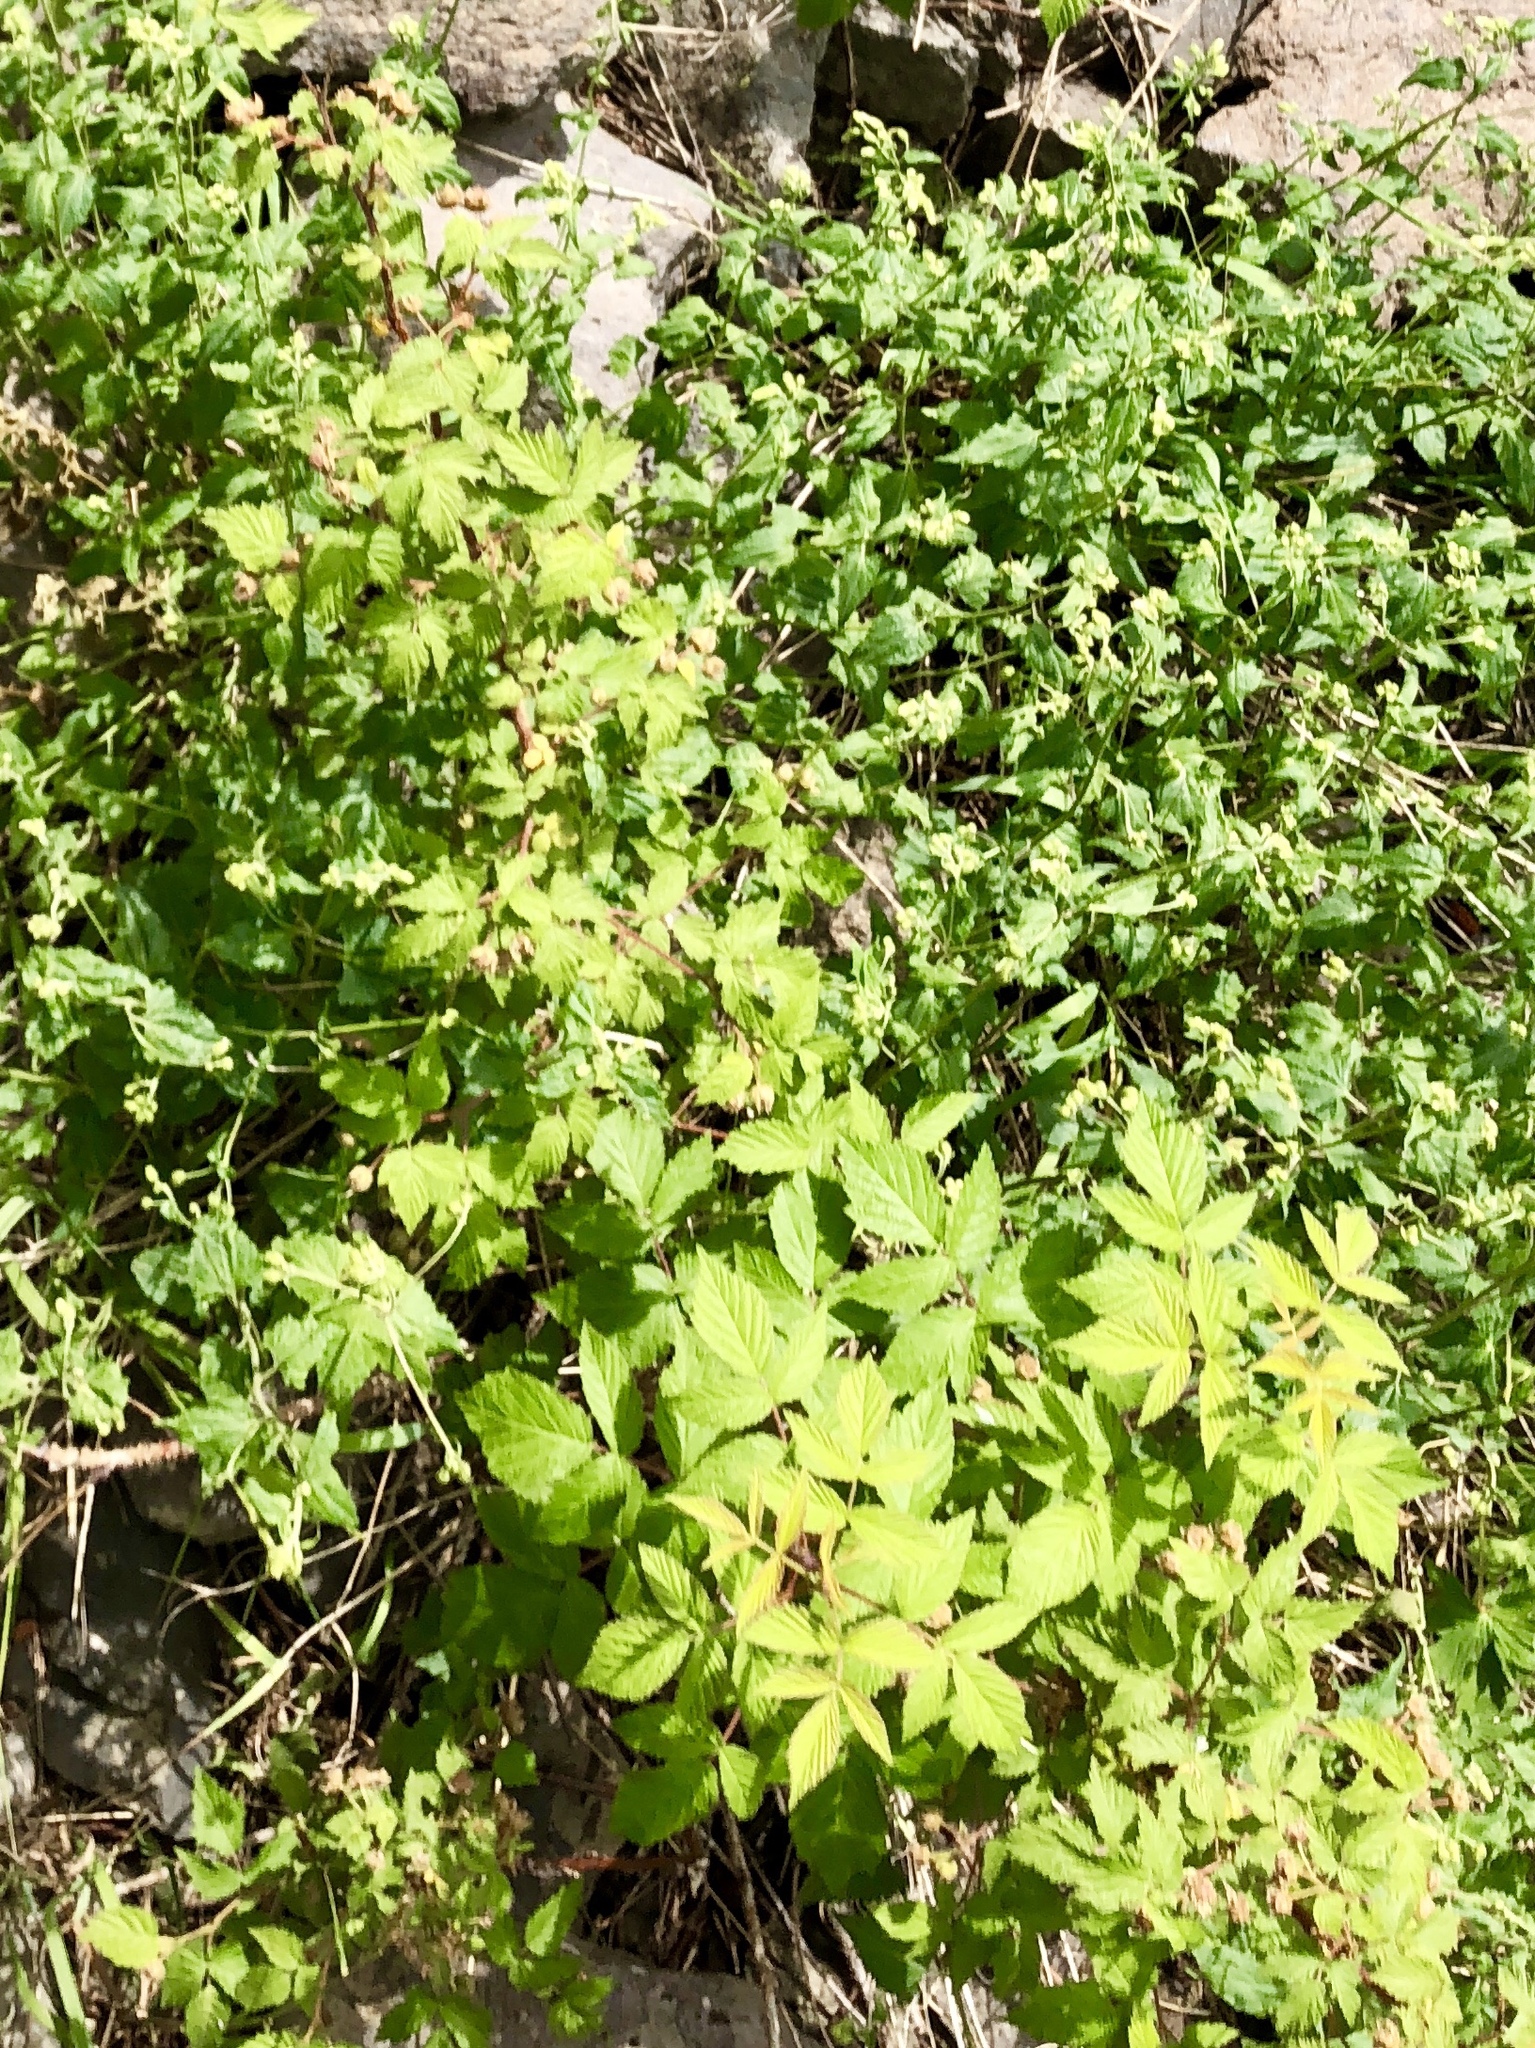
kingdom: Plantae
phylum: Tracheophyta
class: Magnoliopsida
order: Rosales
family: Rosaceae
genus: Rubus
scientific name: Rubus idaeus
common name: Raspberry
